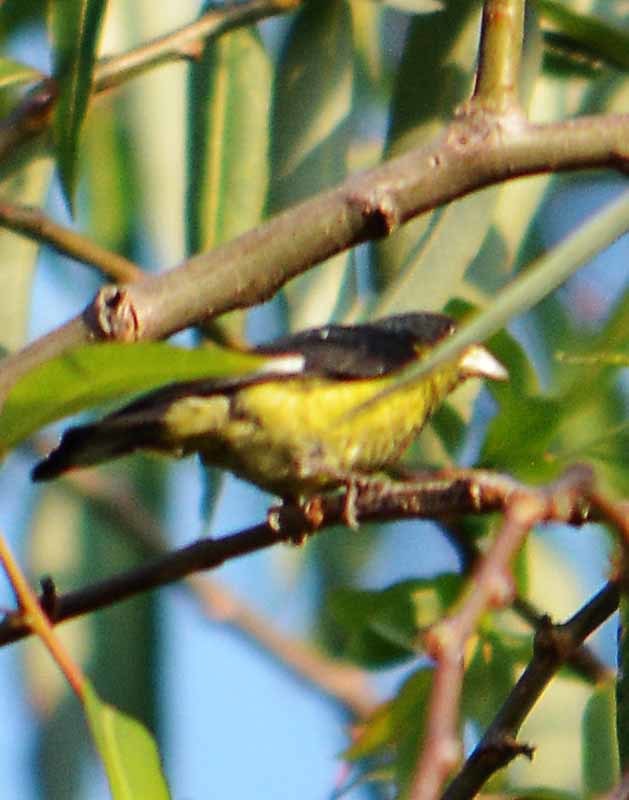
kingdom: Animalia
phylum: Chordata
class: Aves
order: Passeriformes
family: Fringillidae
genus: Spinus
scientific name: Spinus psaltria
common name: Lesser goldfinch
